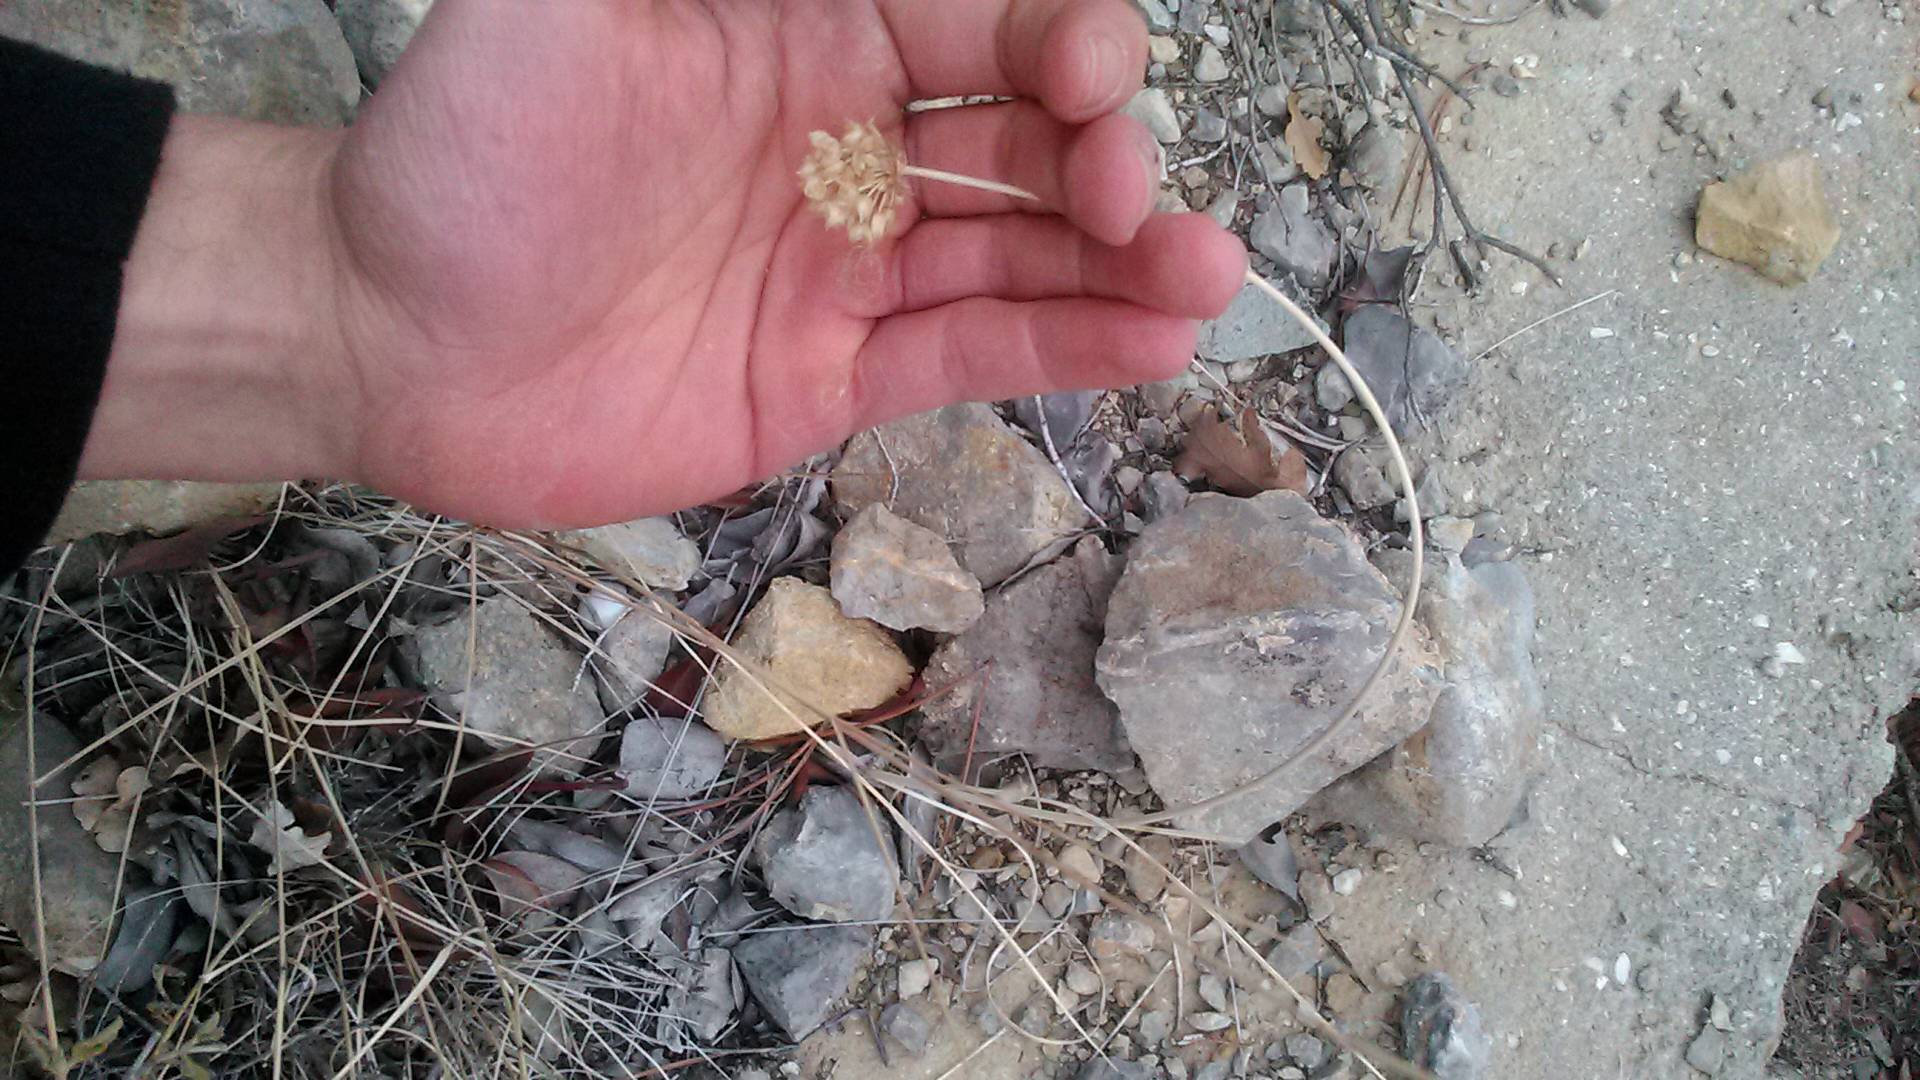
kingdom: Plantae
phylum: Tracheophyta
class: Liliopsida
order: Asparagales
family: Amaryllidaceae
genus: Allium
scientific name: Allium
